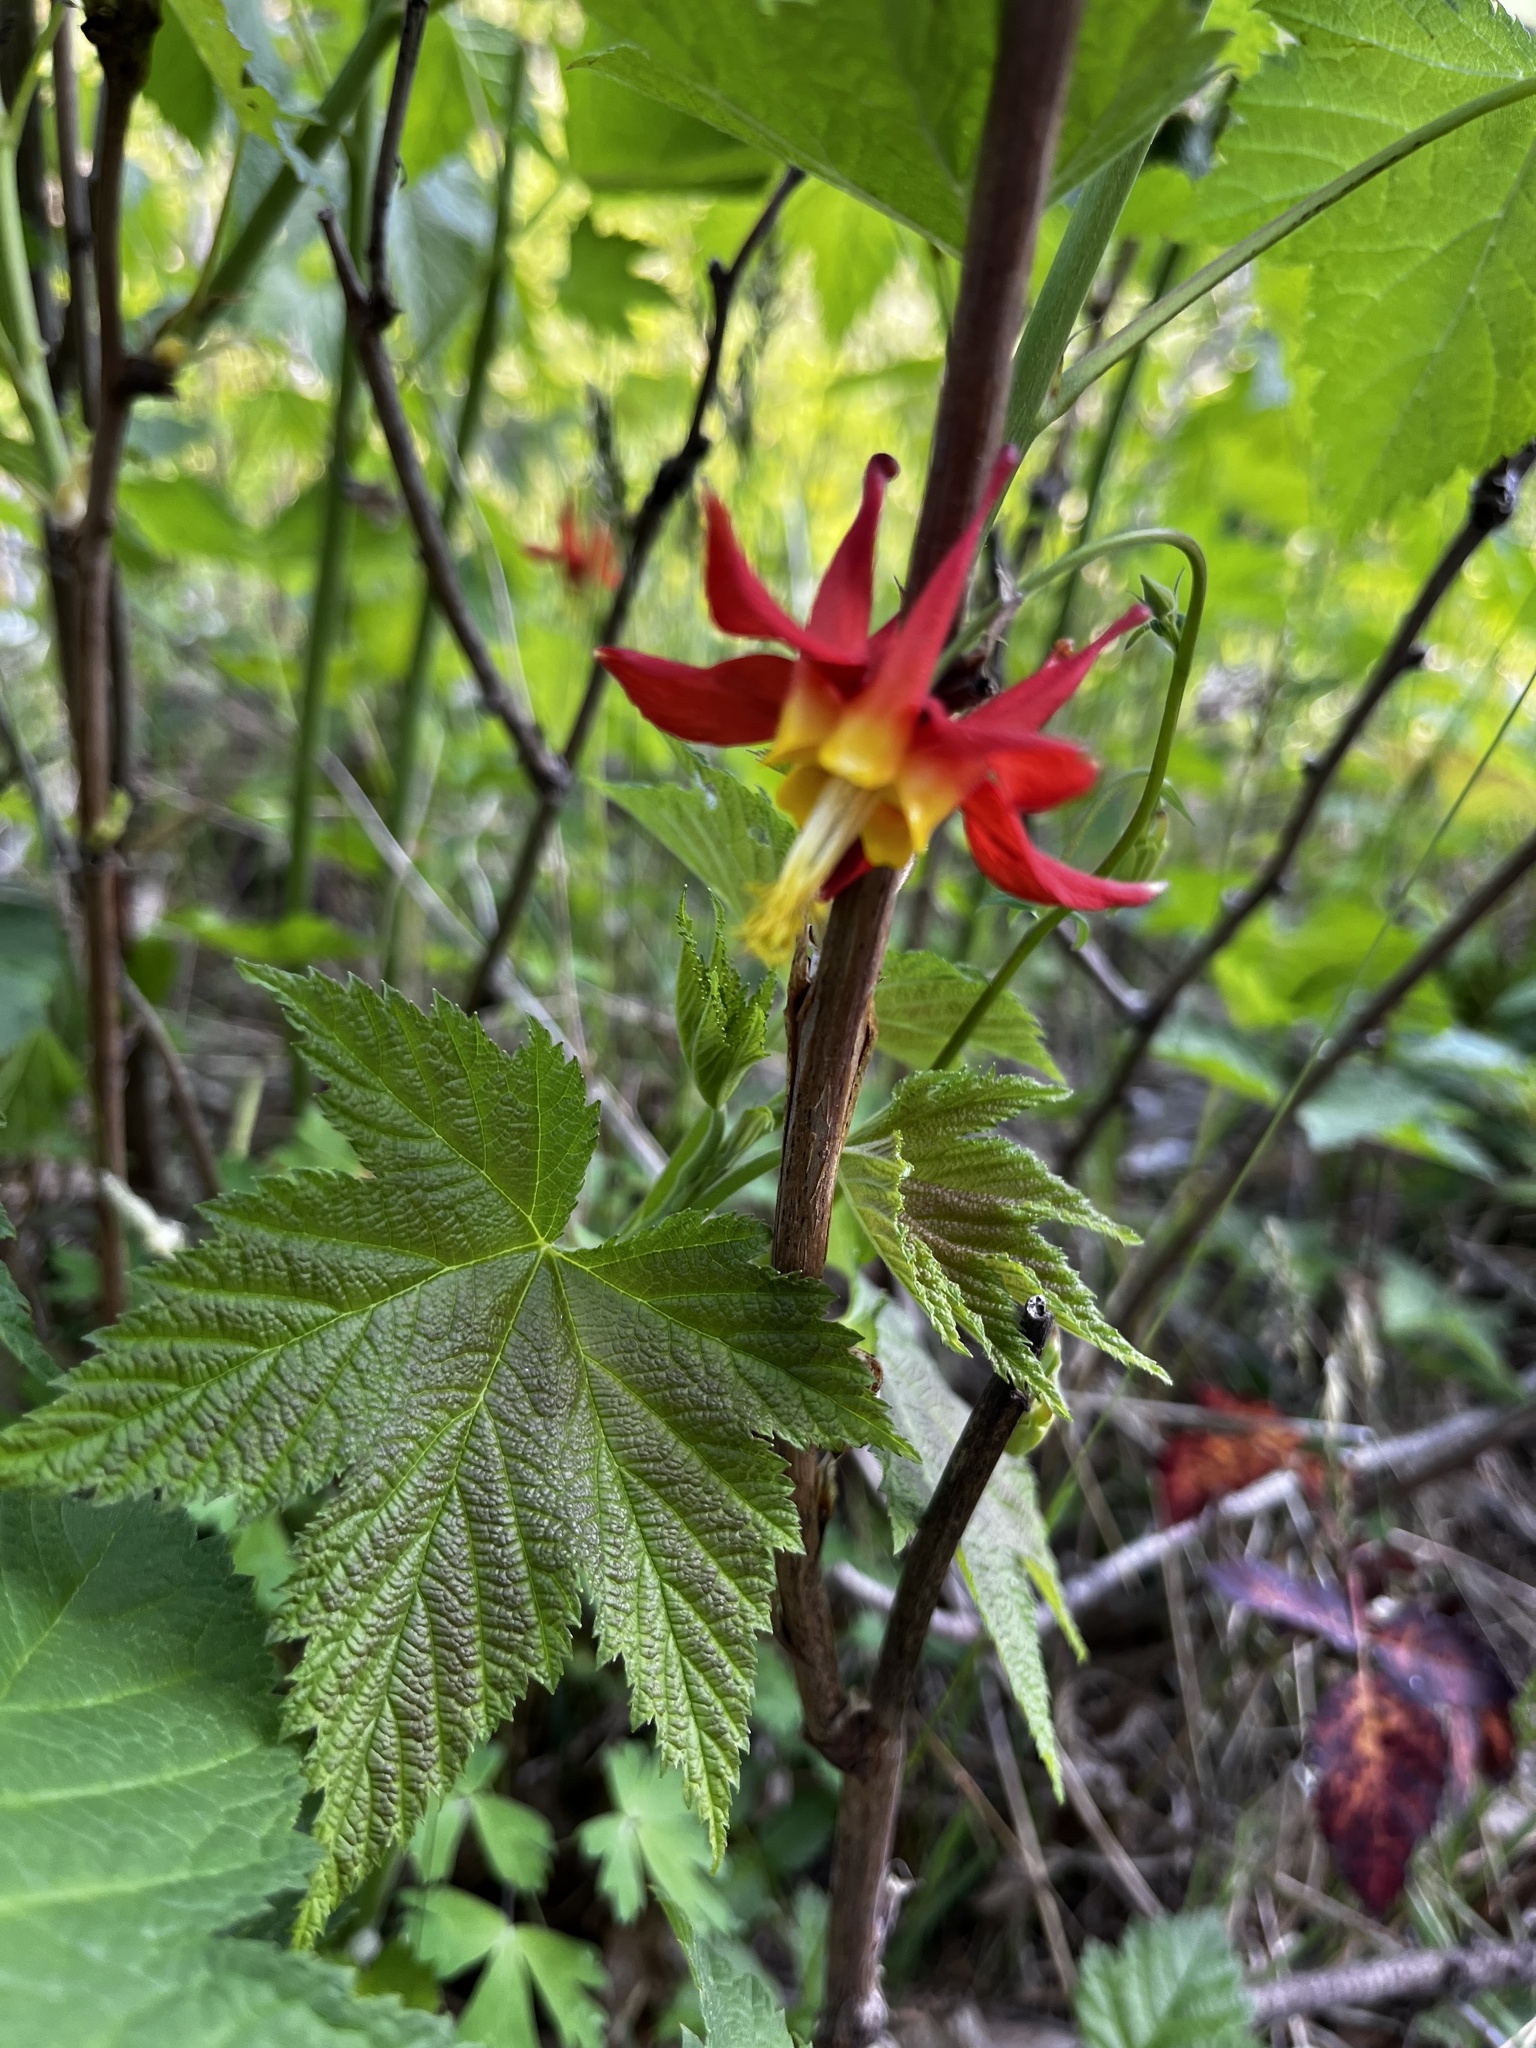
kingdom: Plantae
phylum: Tracheophyta
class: Magnoliopsida
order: Ranunculales
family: Ranunculaceae
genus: Aquilegia
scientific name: Aquilegia formosa
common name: Sitka columbine
